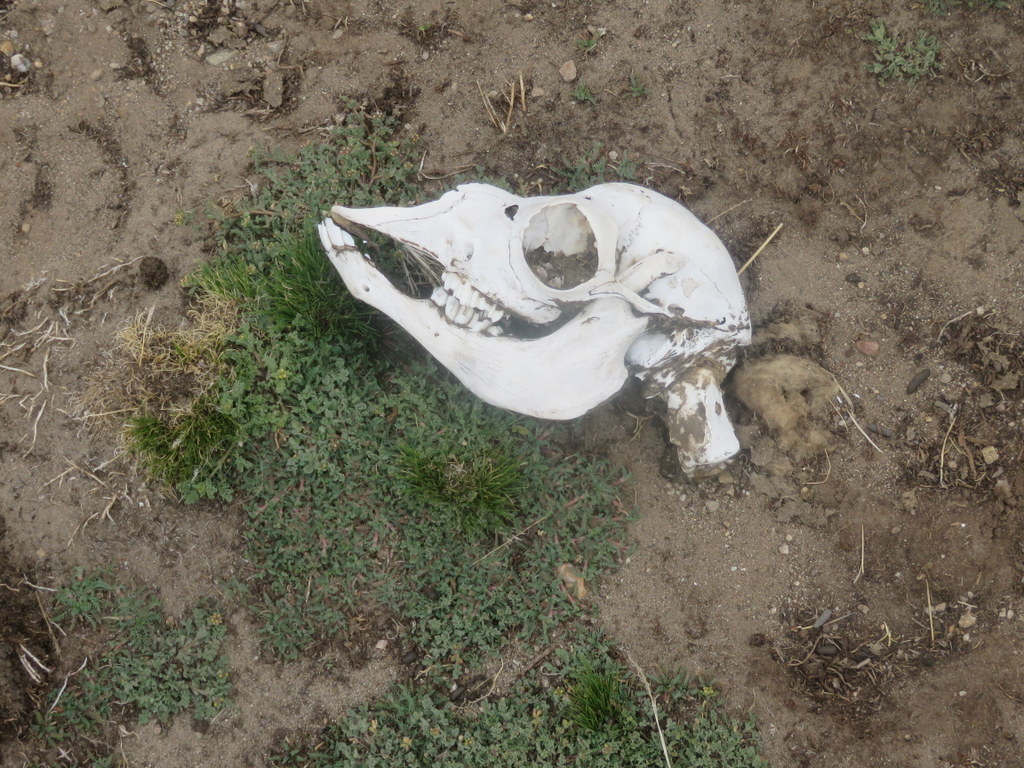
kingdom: Animalia
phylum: Chordata
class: Mammalia
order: Artiodactyla
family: Camelidae
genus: Lama
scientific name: Lama glama
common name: Llama
